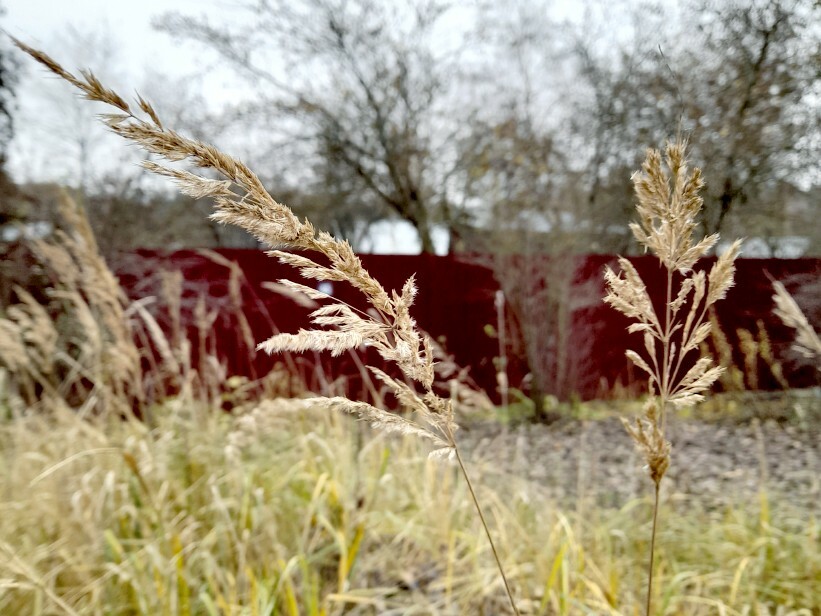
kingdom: Plantae
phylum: Tracheophyta
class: Liliopsida
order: Poales
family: Poaceae
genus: Calamagrostis
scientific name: Calamagrostis epigejos
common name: Wood small-reed
